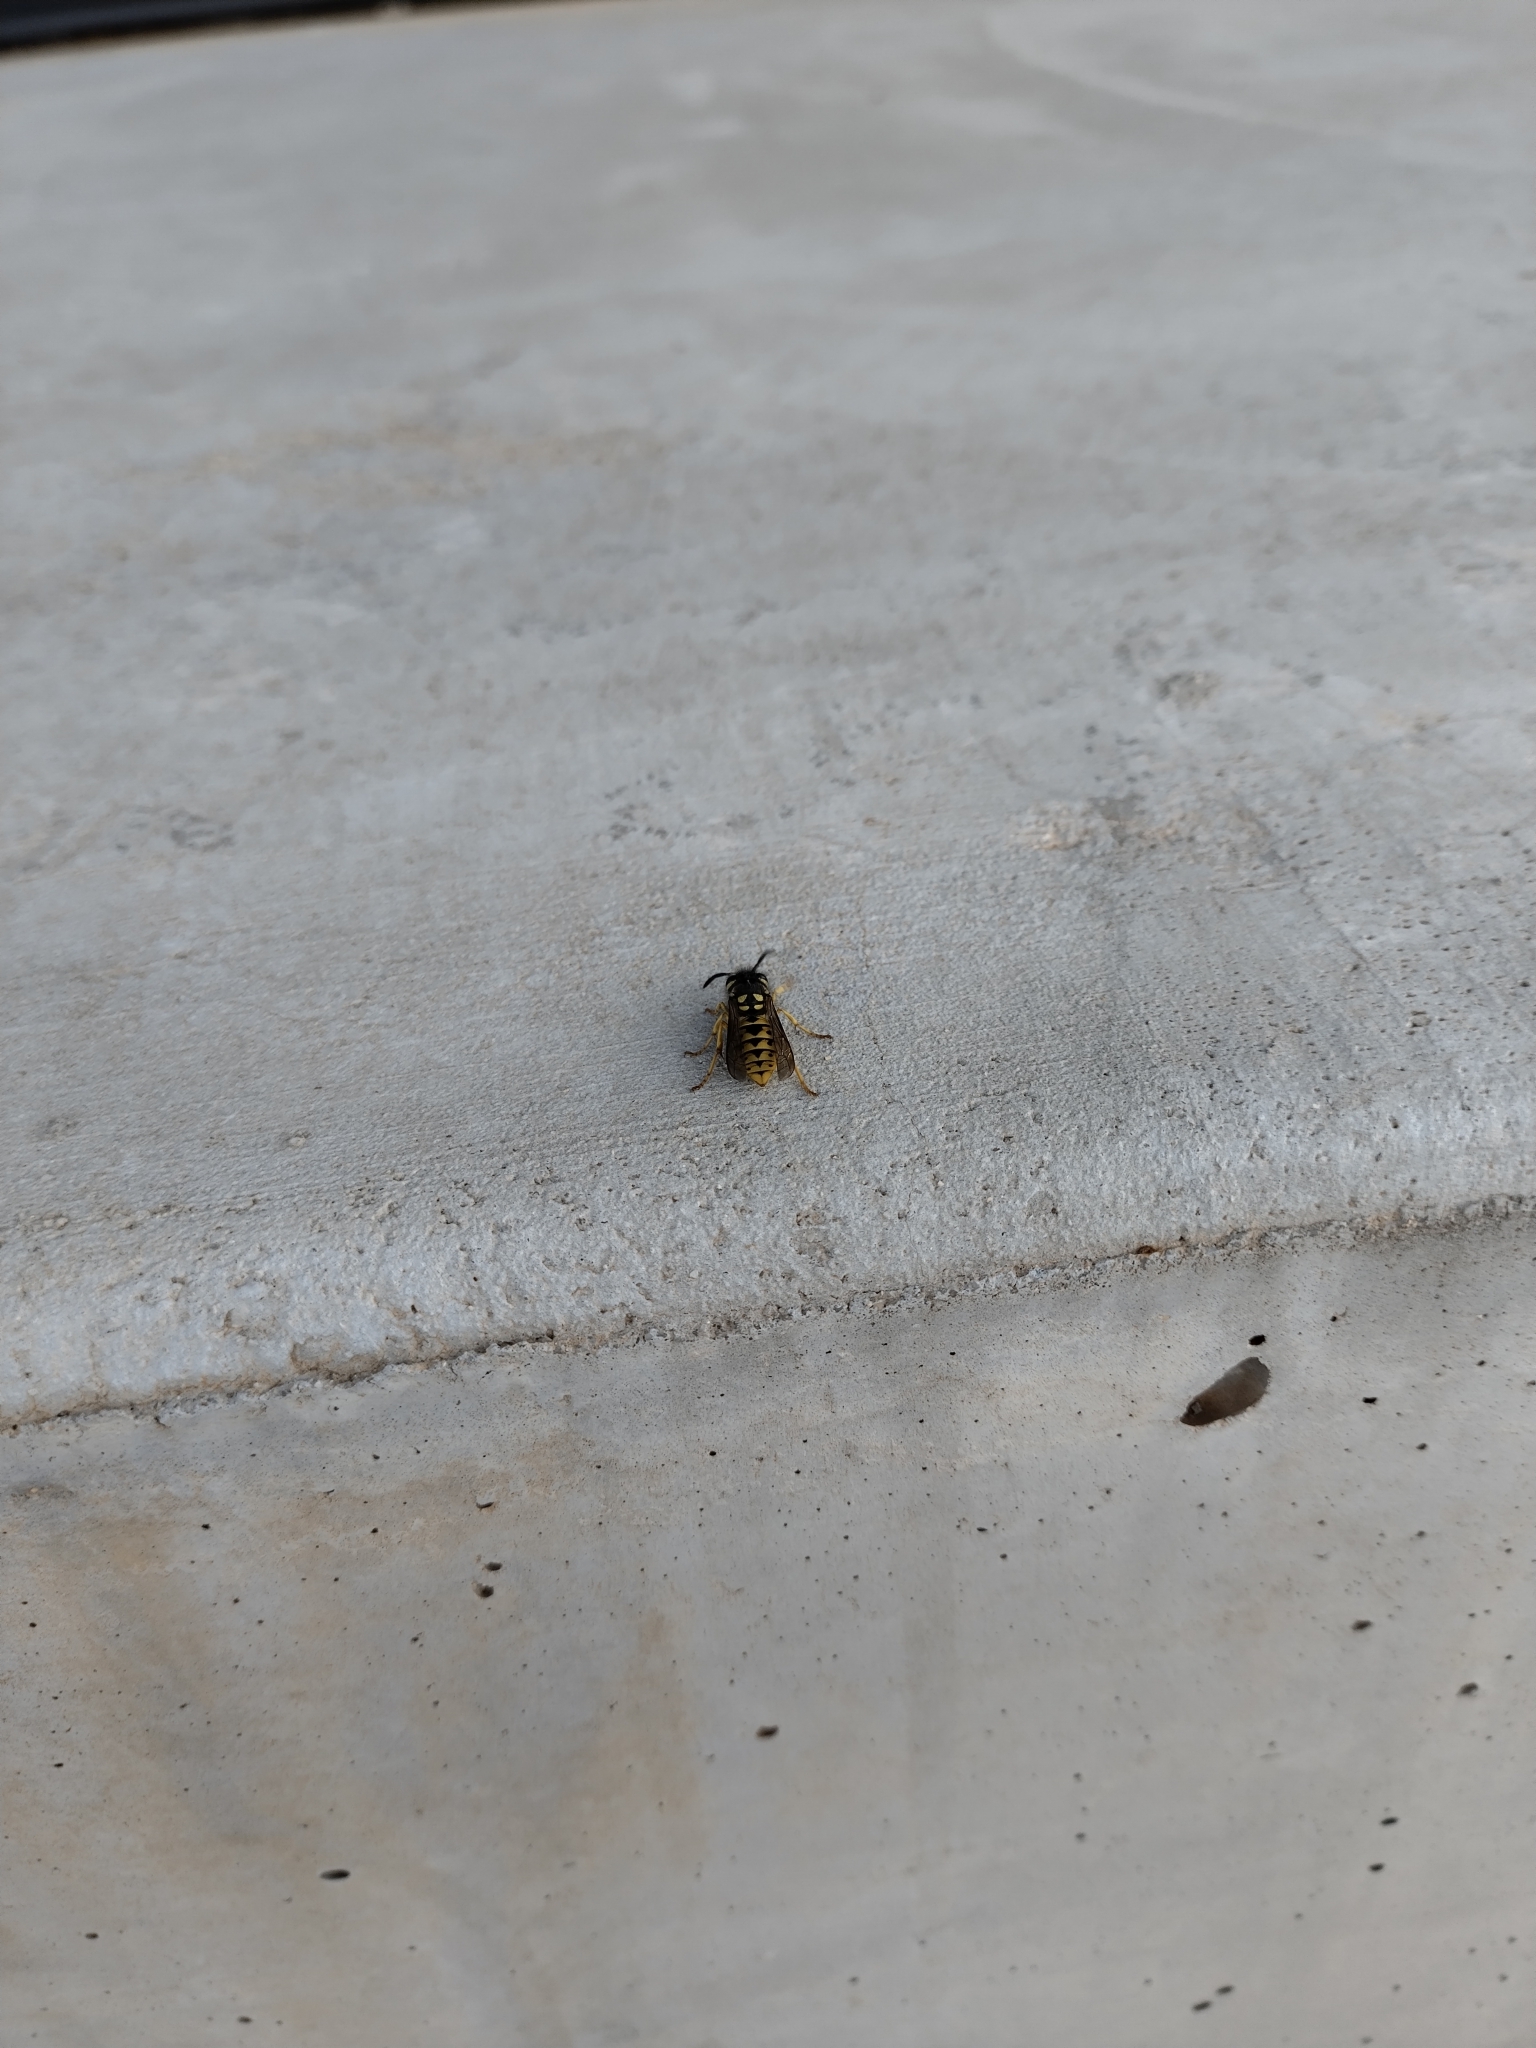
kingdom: Animalia
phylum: Arthropoda
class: Insecta
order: Hymenoptera
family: Vespidae
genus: Vespula
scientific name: Vespula germanica
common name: German wasp
